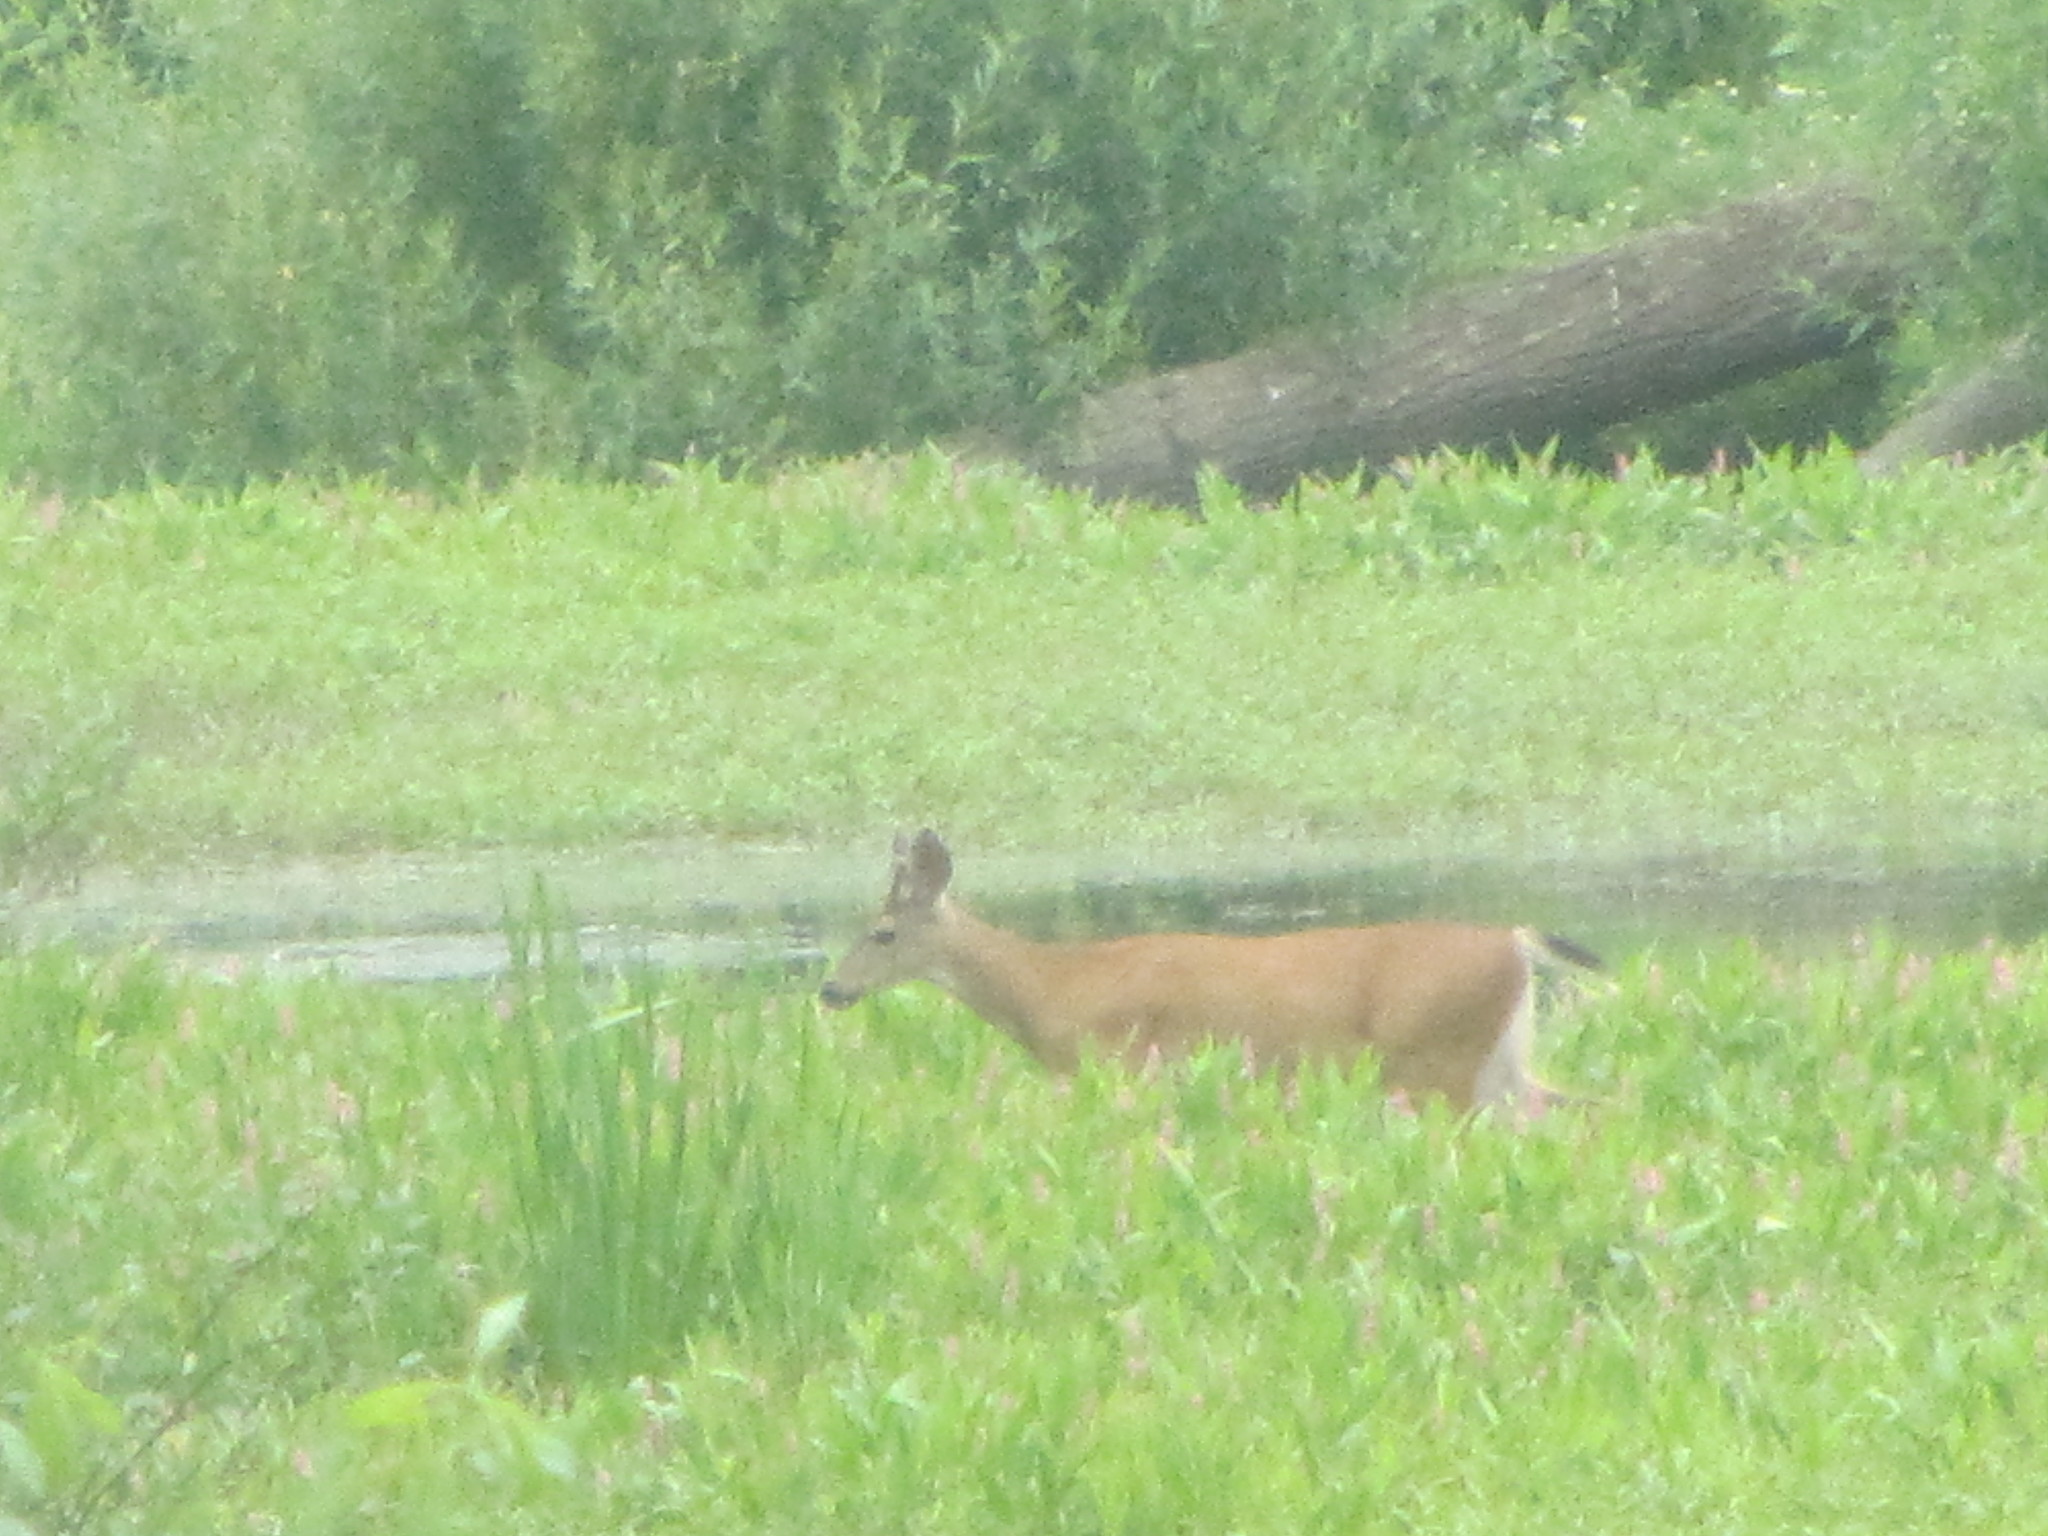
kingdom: Animalia
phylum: Chordata
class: Mammalia
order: Artiodactyla
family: Cervidae
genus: Odocoileus
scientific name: Odocoileus hemionus
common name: Mule deer
